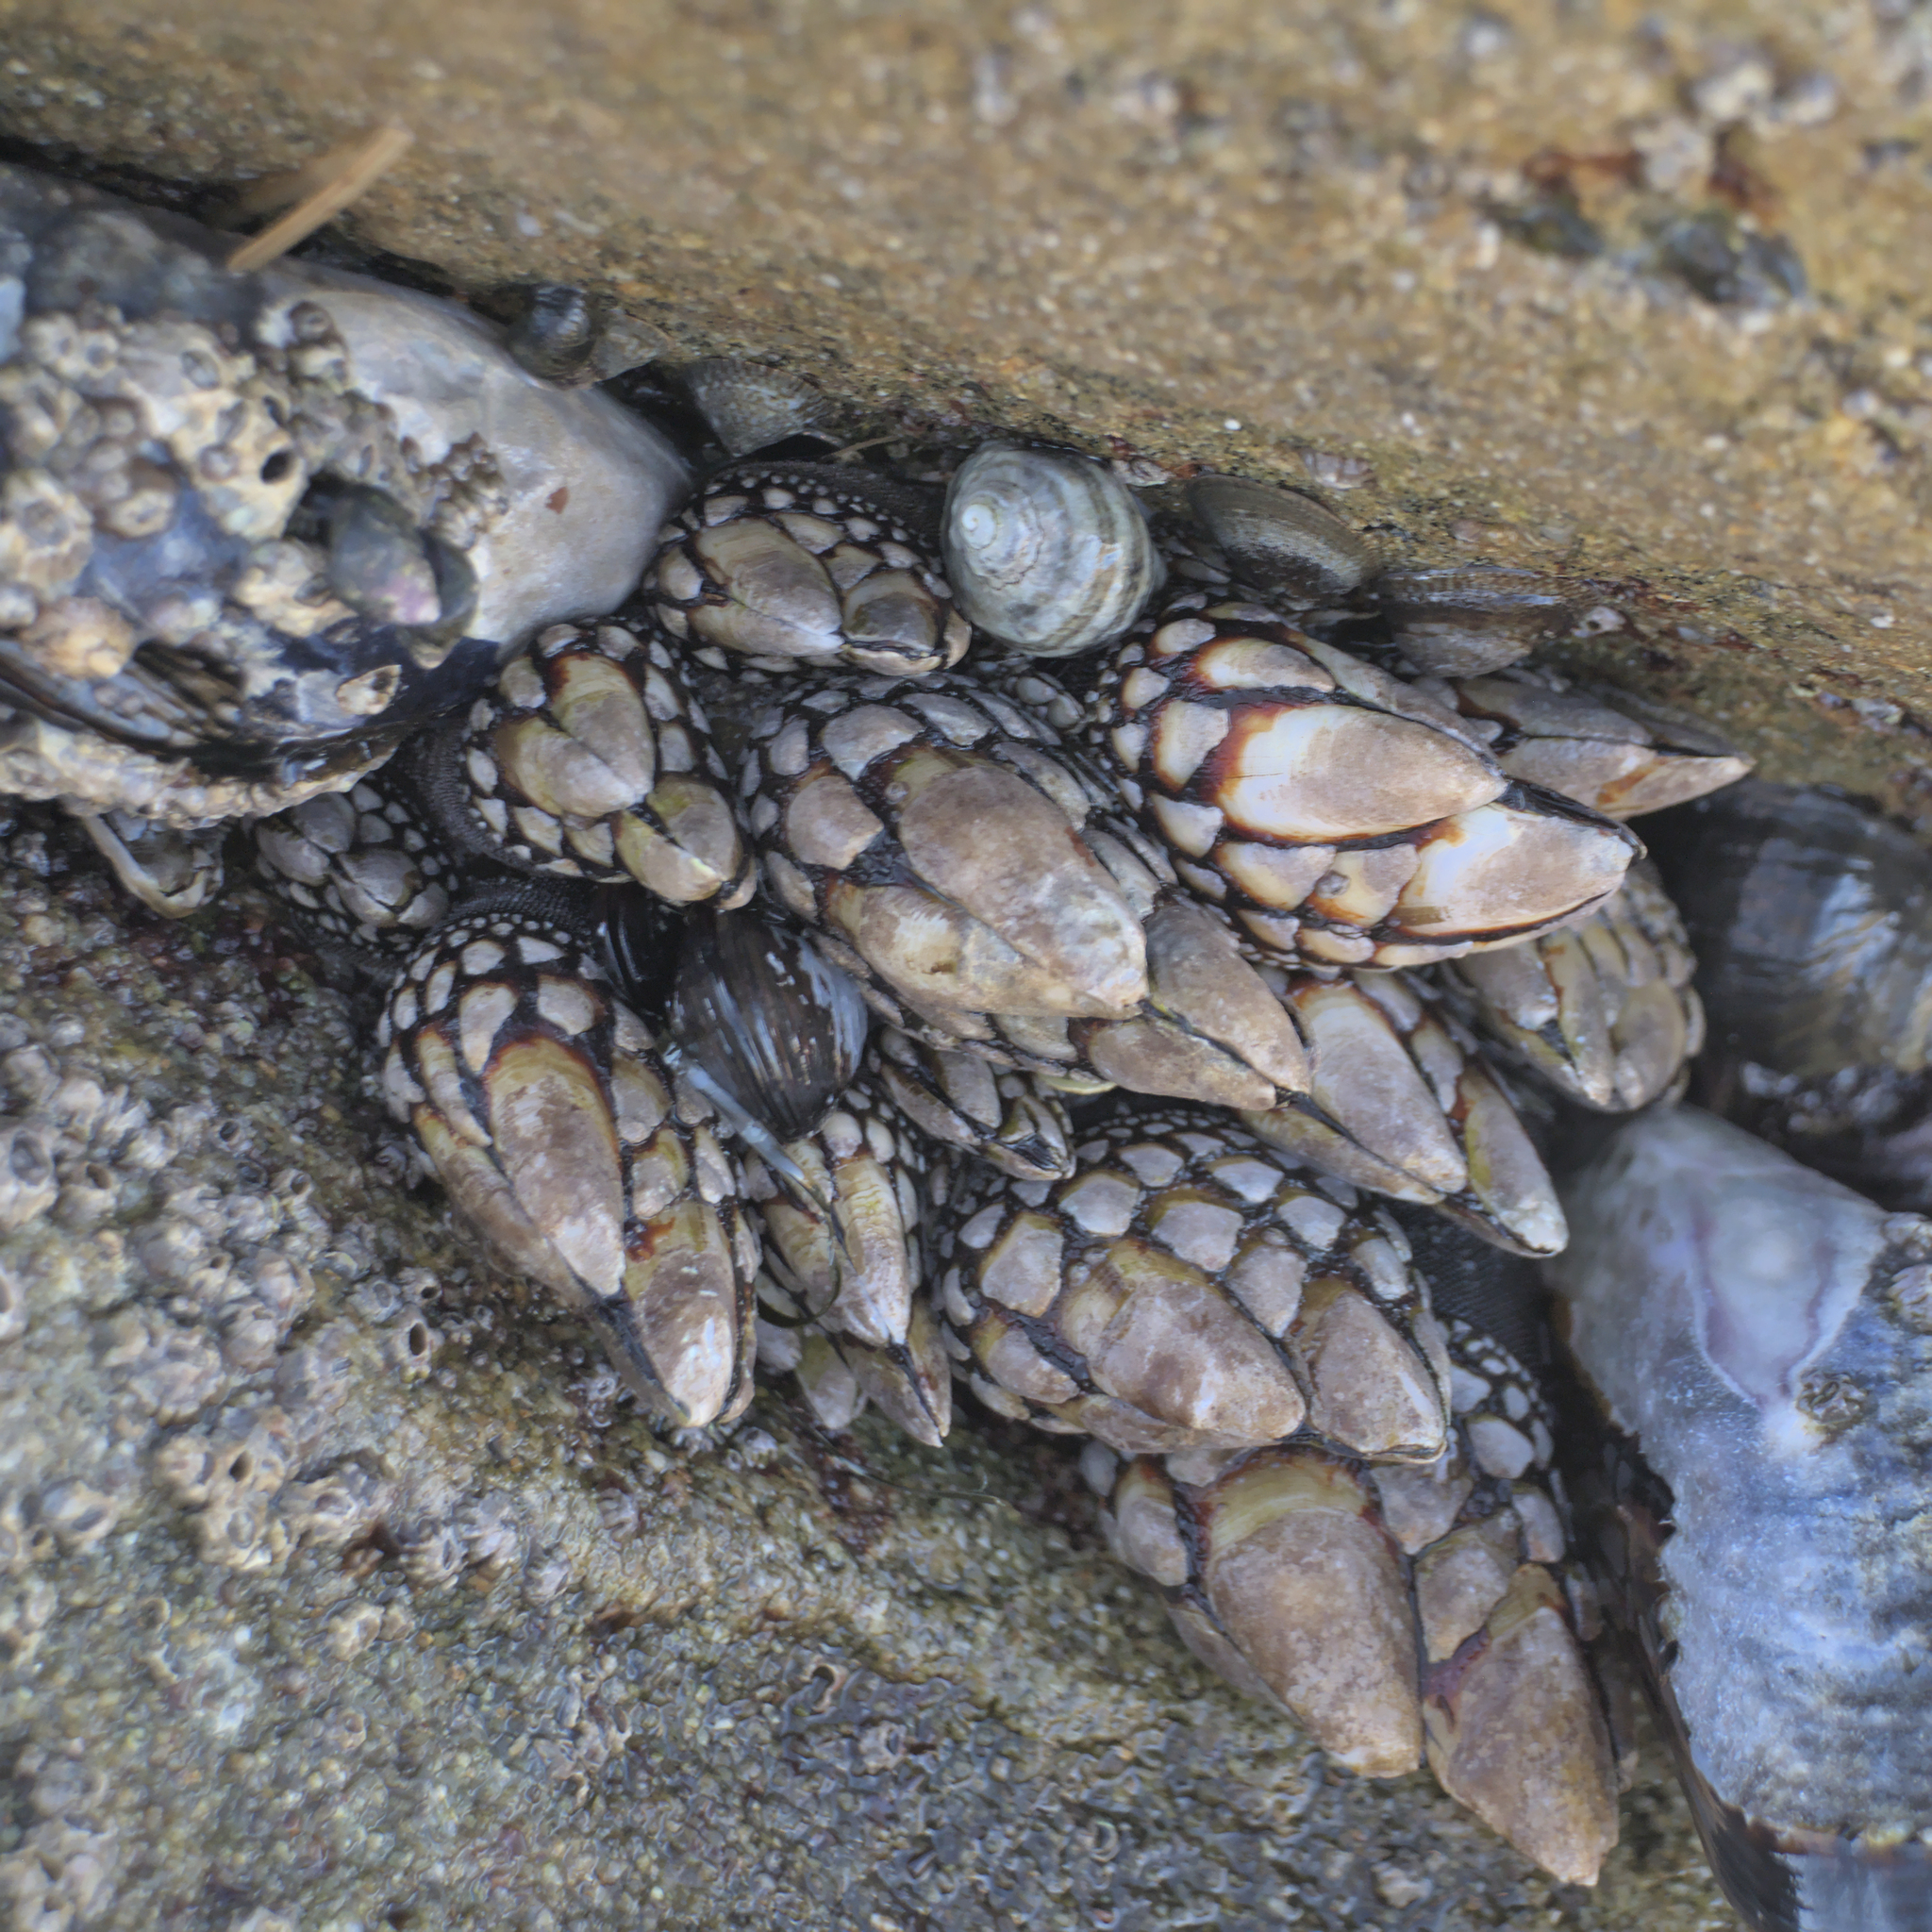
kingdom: Animalia
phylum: Arthropoda
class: Maxillopoda
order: Pedunculata
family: Pollicipedidae
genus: Pollicipes
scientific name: Pollicipes polymerus
